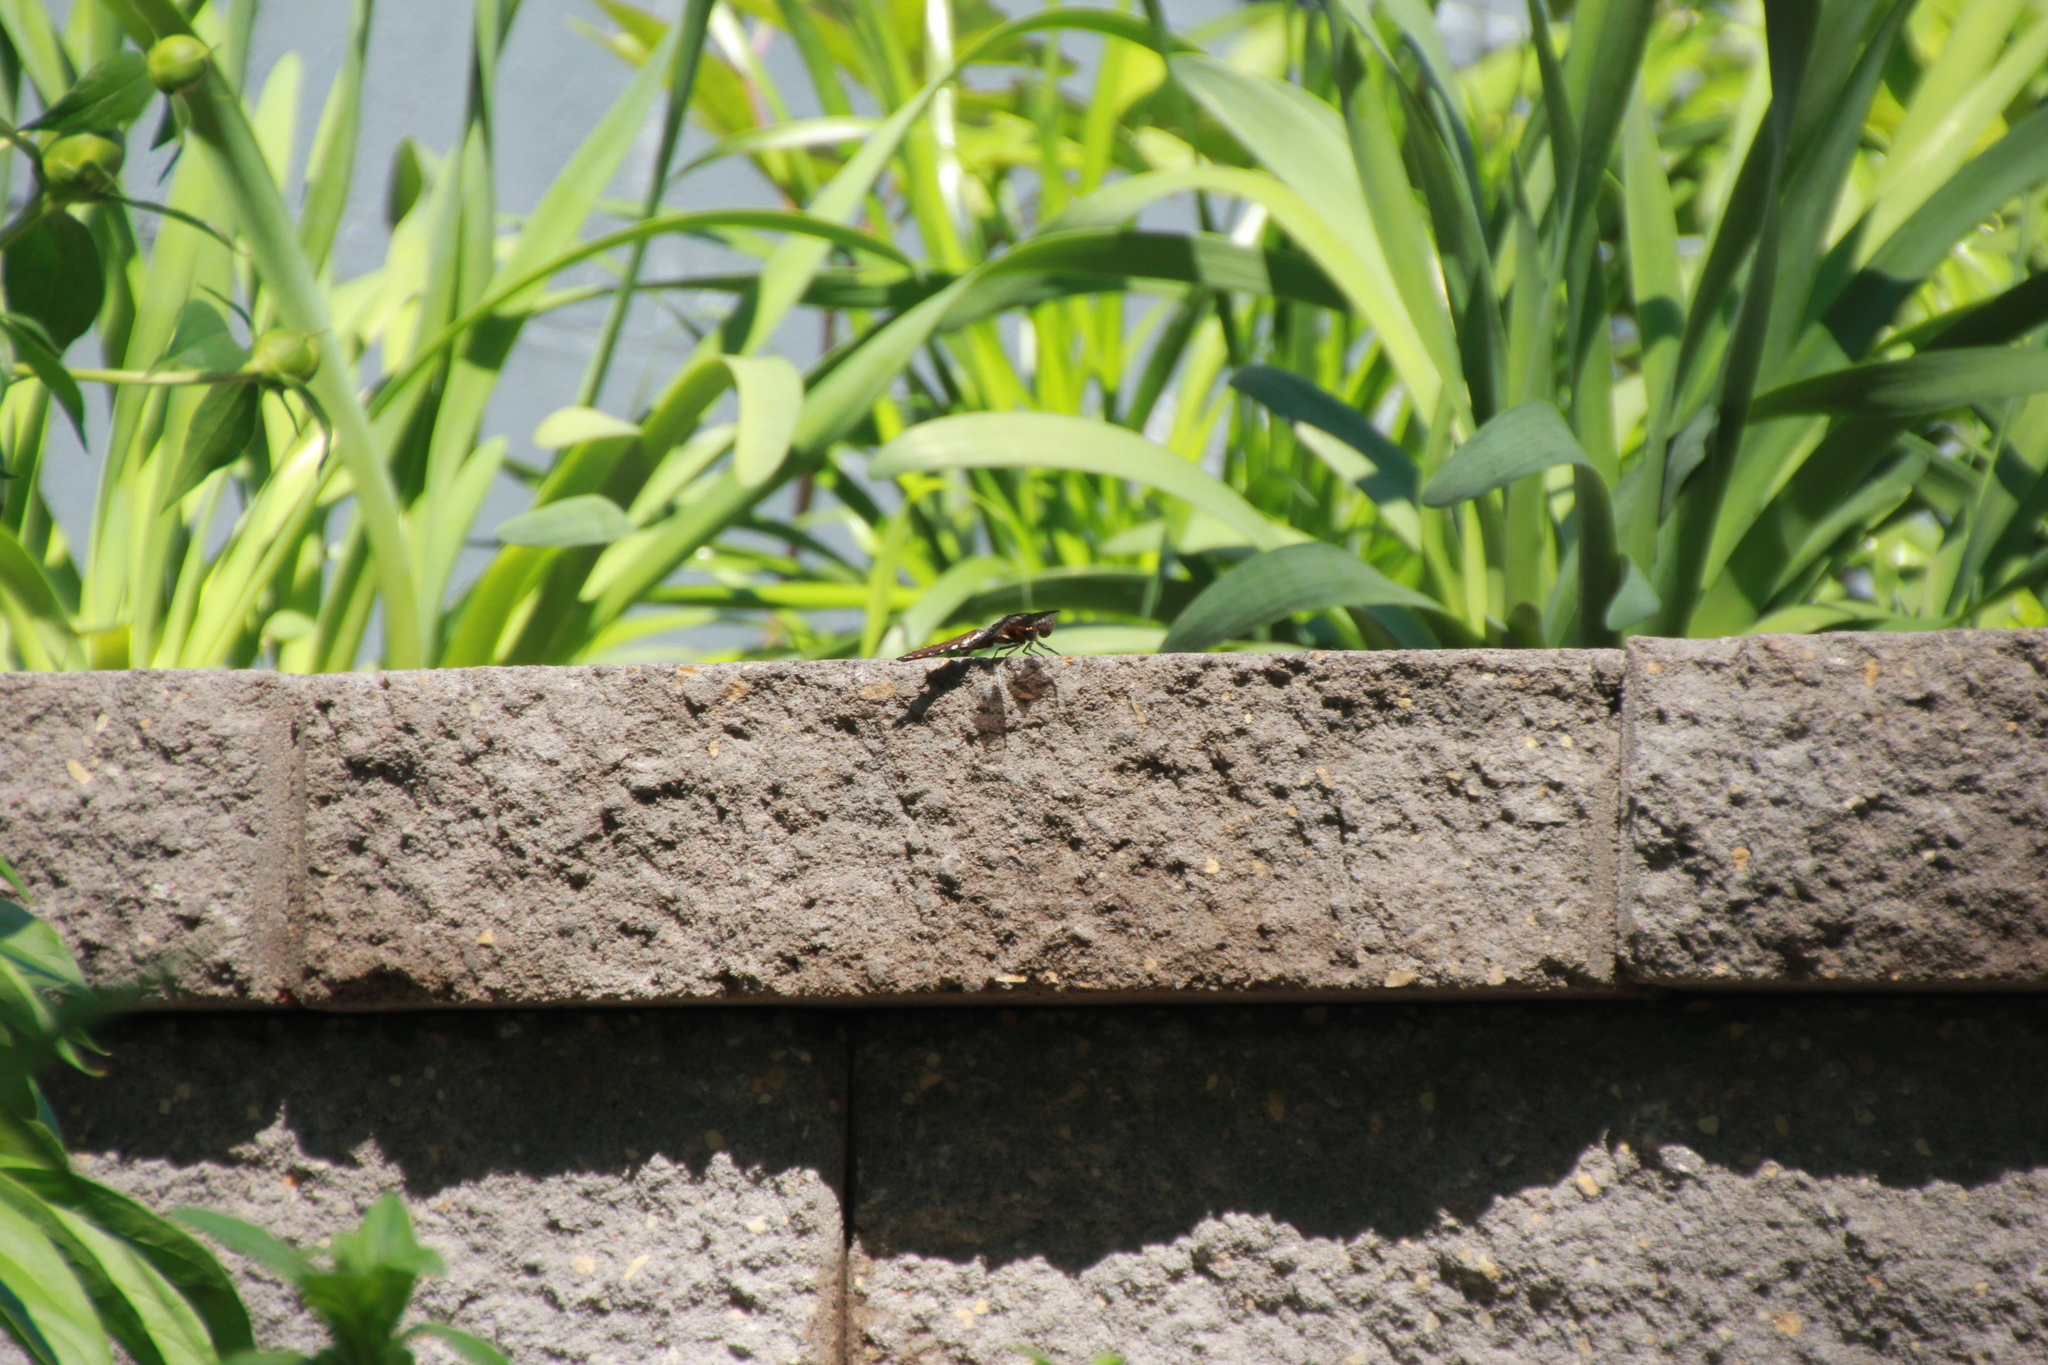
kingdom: Animalia
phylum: Arthropoda
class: Insecta
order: Odonata
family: Libellulidae
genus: Plathemis
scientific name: Plathemis lydia
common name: Common whitetail
